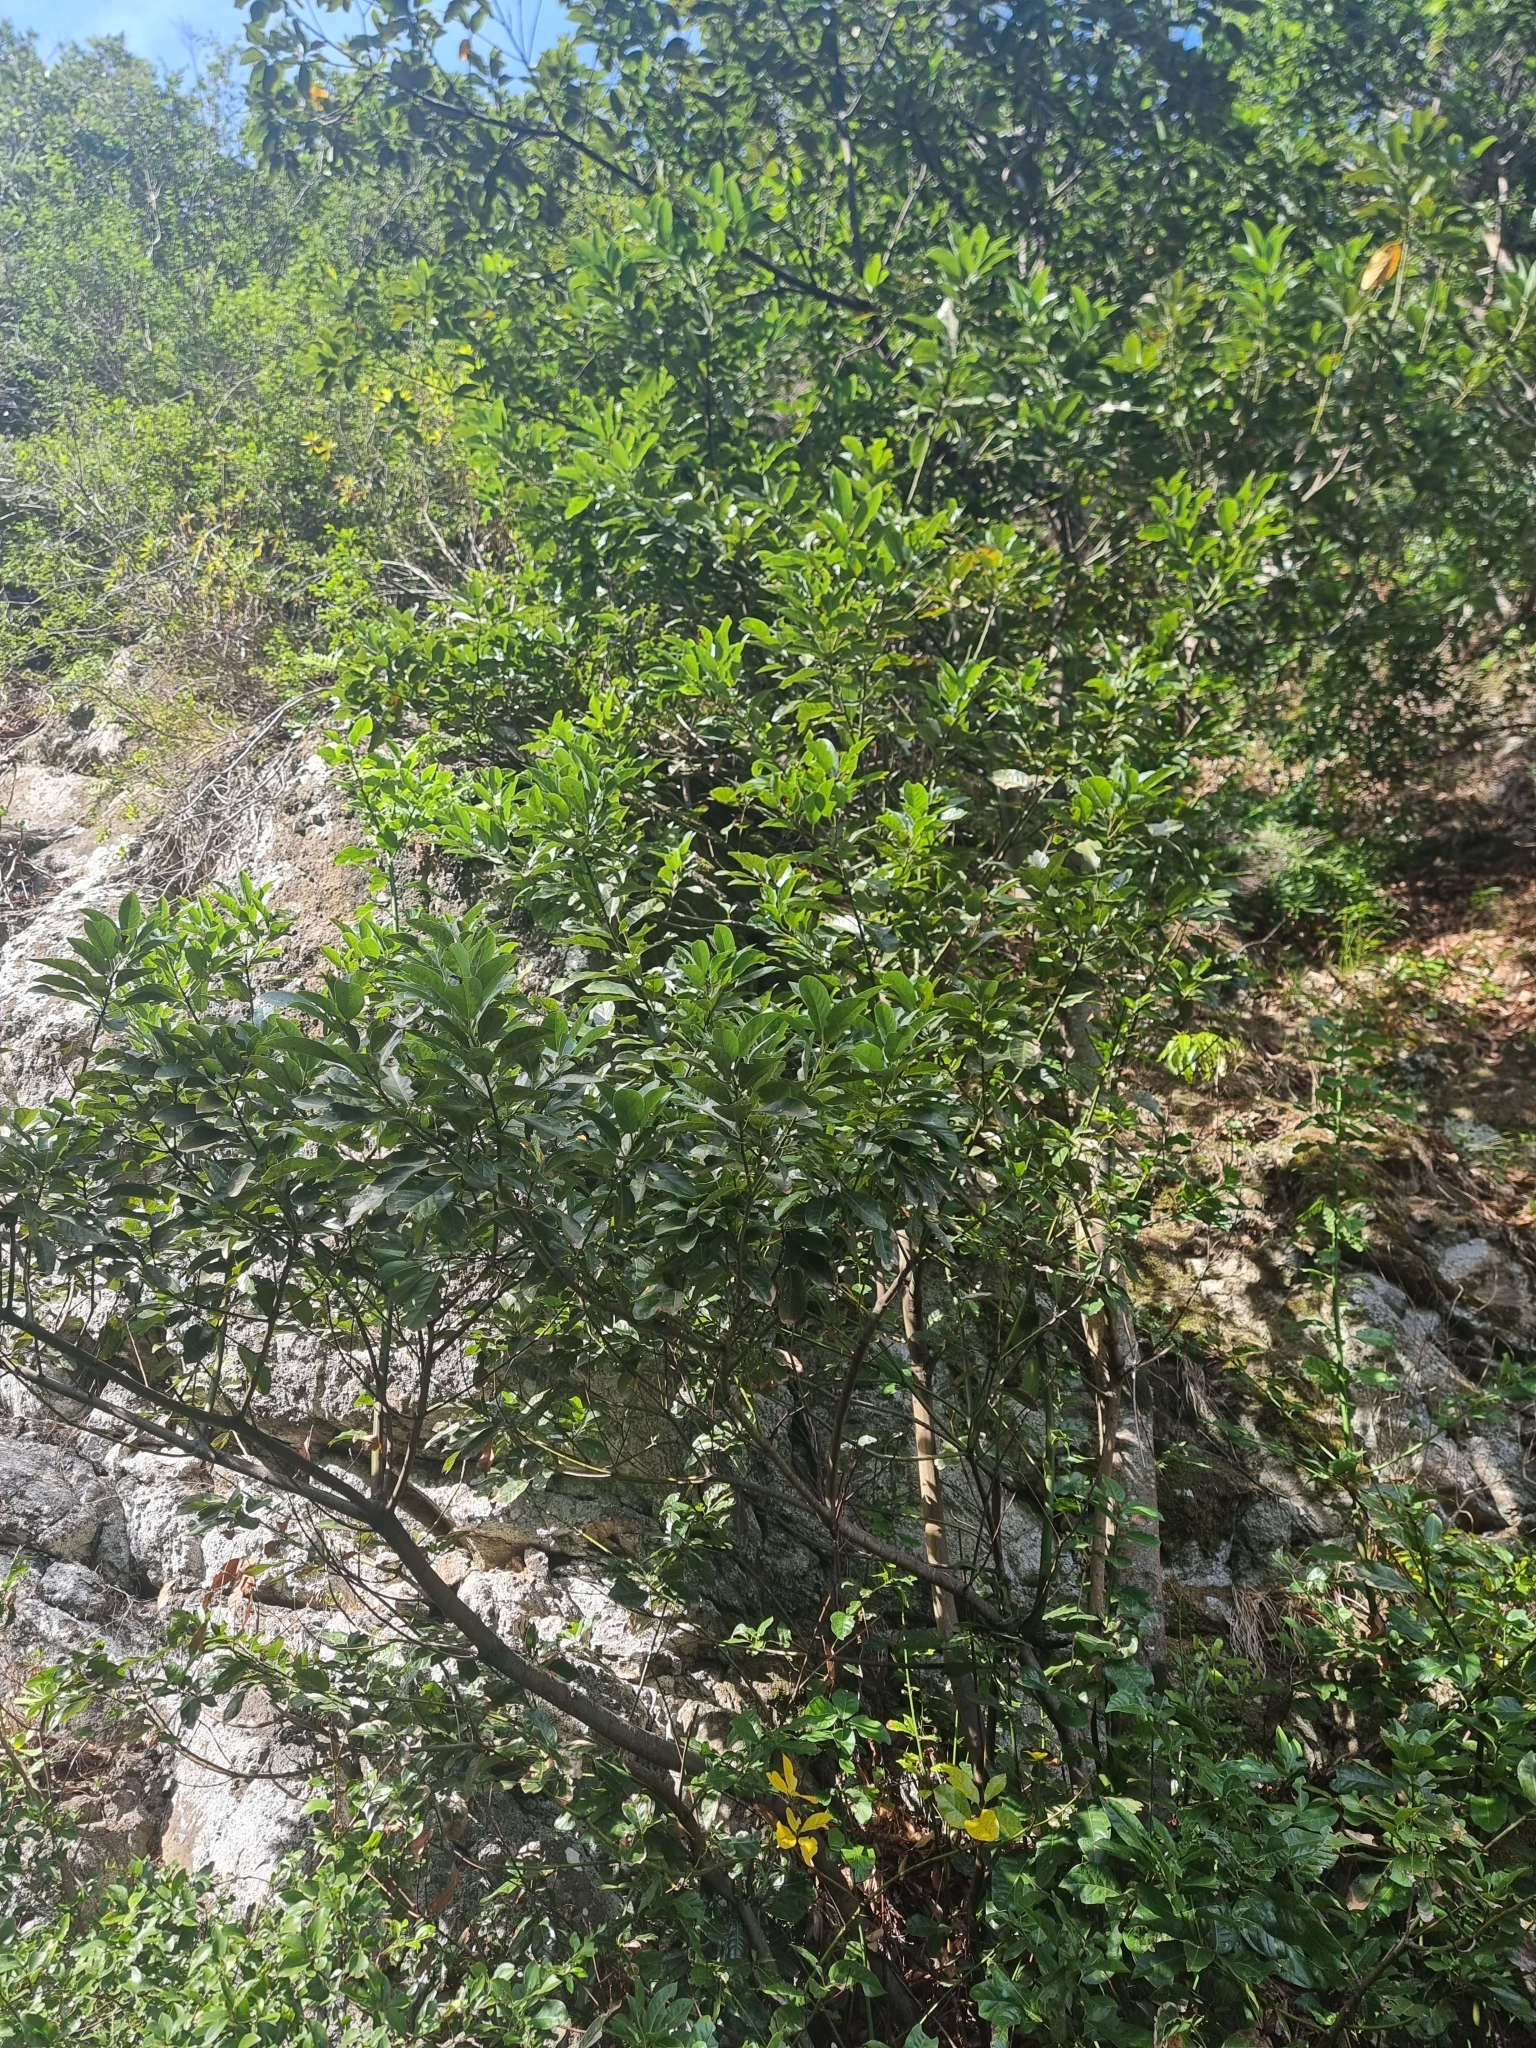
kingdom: Plantae
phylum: Tracheophyta
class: Magnoliopsida
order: Laurales
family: Lauraceae
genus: Laurus
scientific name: Laurus novocanariensis
